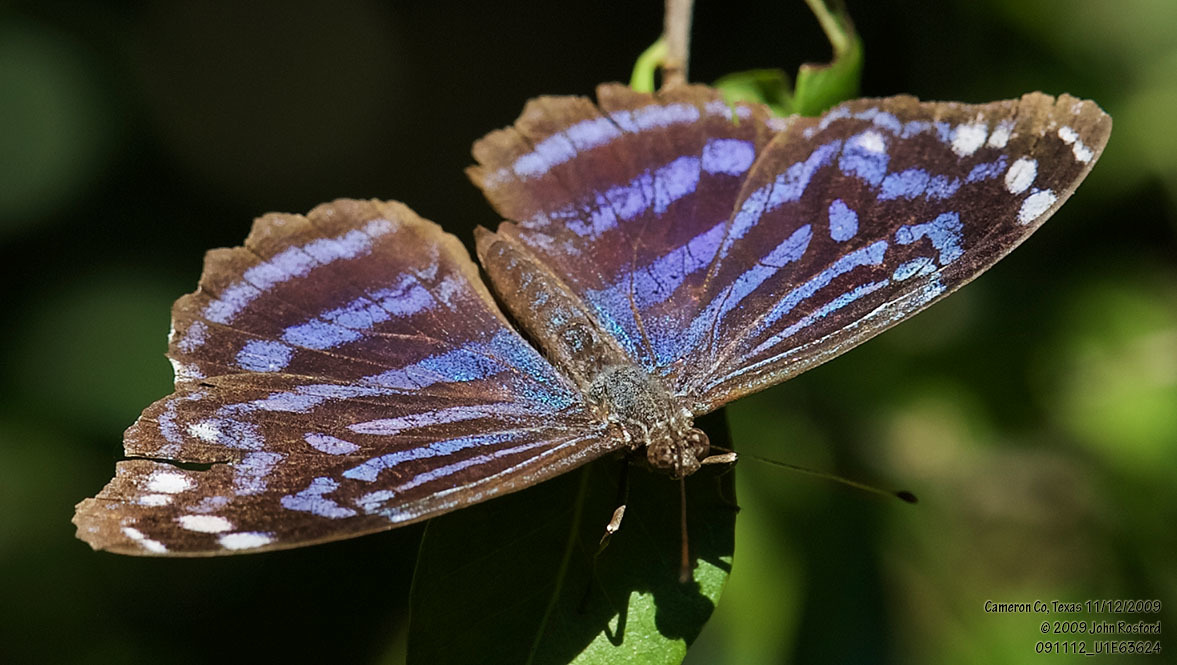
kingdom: Animalia
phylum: Arthropoda
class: Insecta
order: Lepidoptera
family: Nymphalidae
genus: Myscelia
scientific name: Myscelia ethusa
